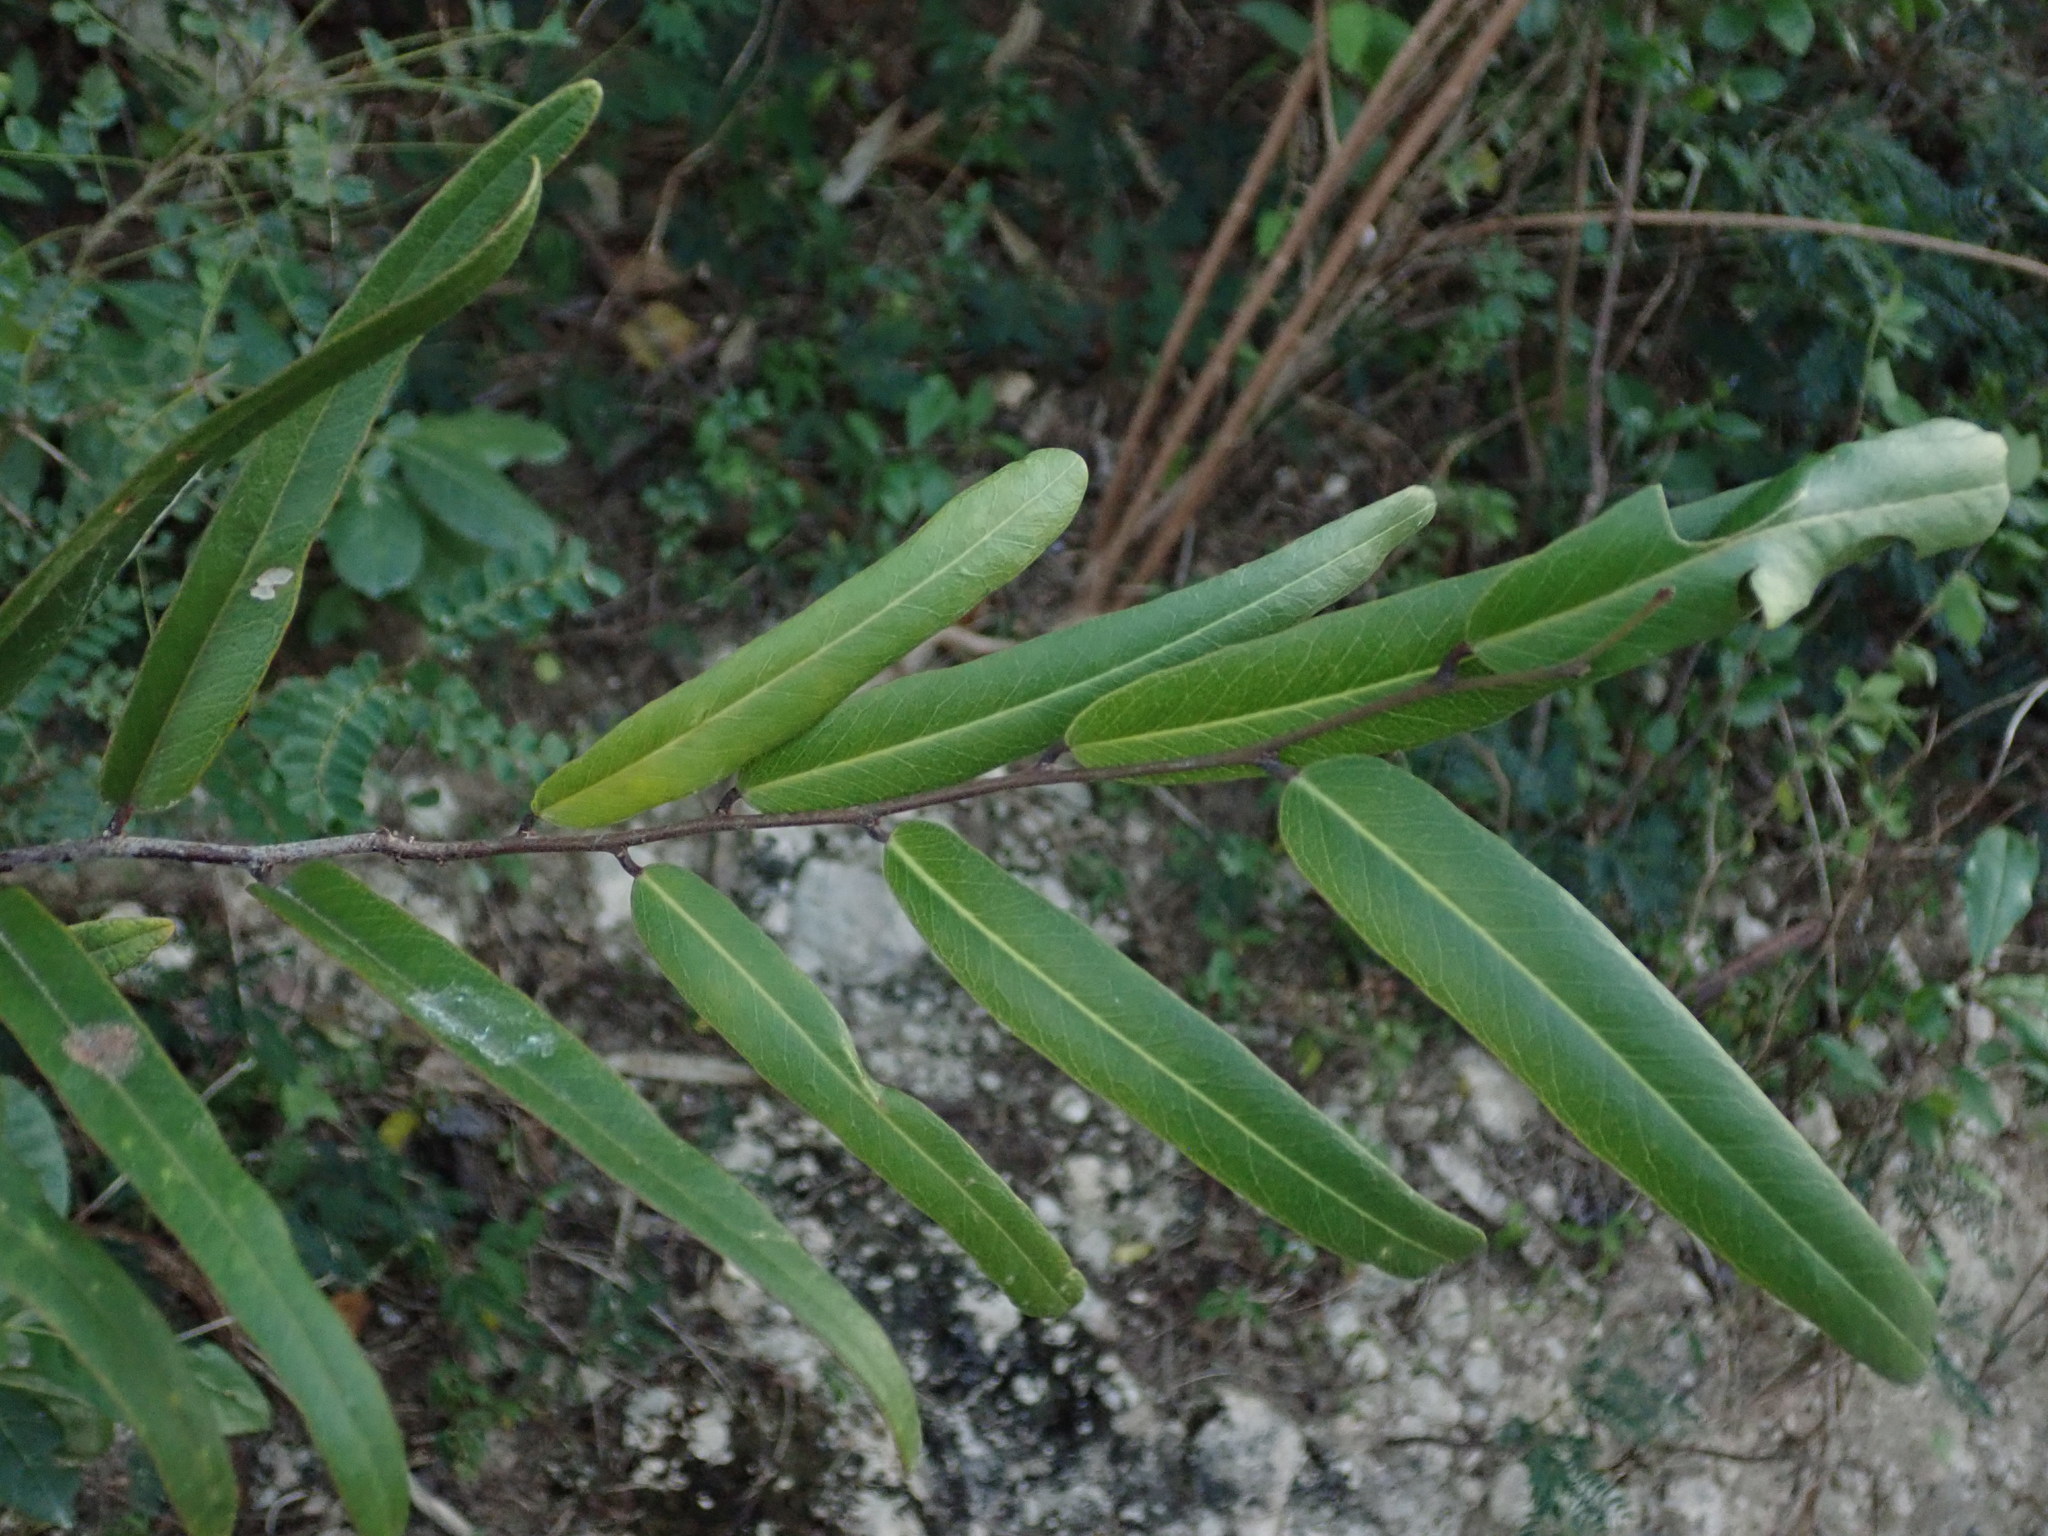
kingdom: Plantae
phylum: Tracheophyta
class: Magnoliopsida
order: Brassicales
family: Capparaceae
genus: Cynophalla
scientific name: Cynophalla flexuosa
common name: Capertree
